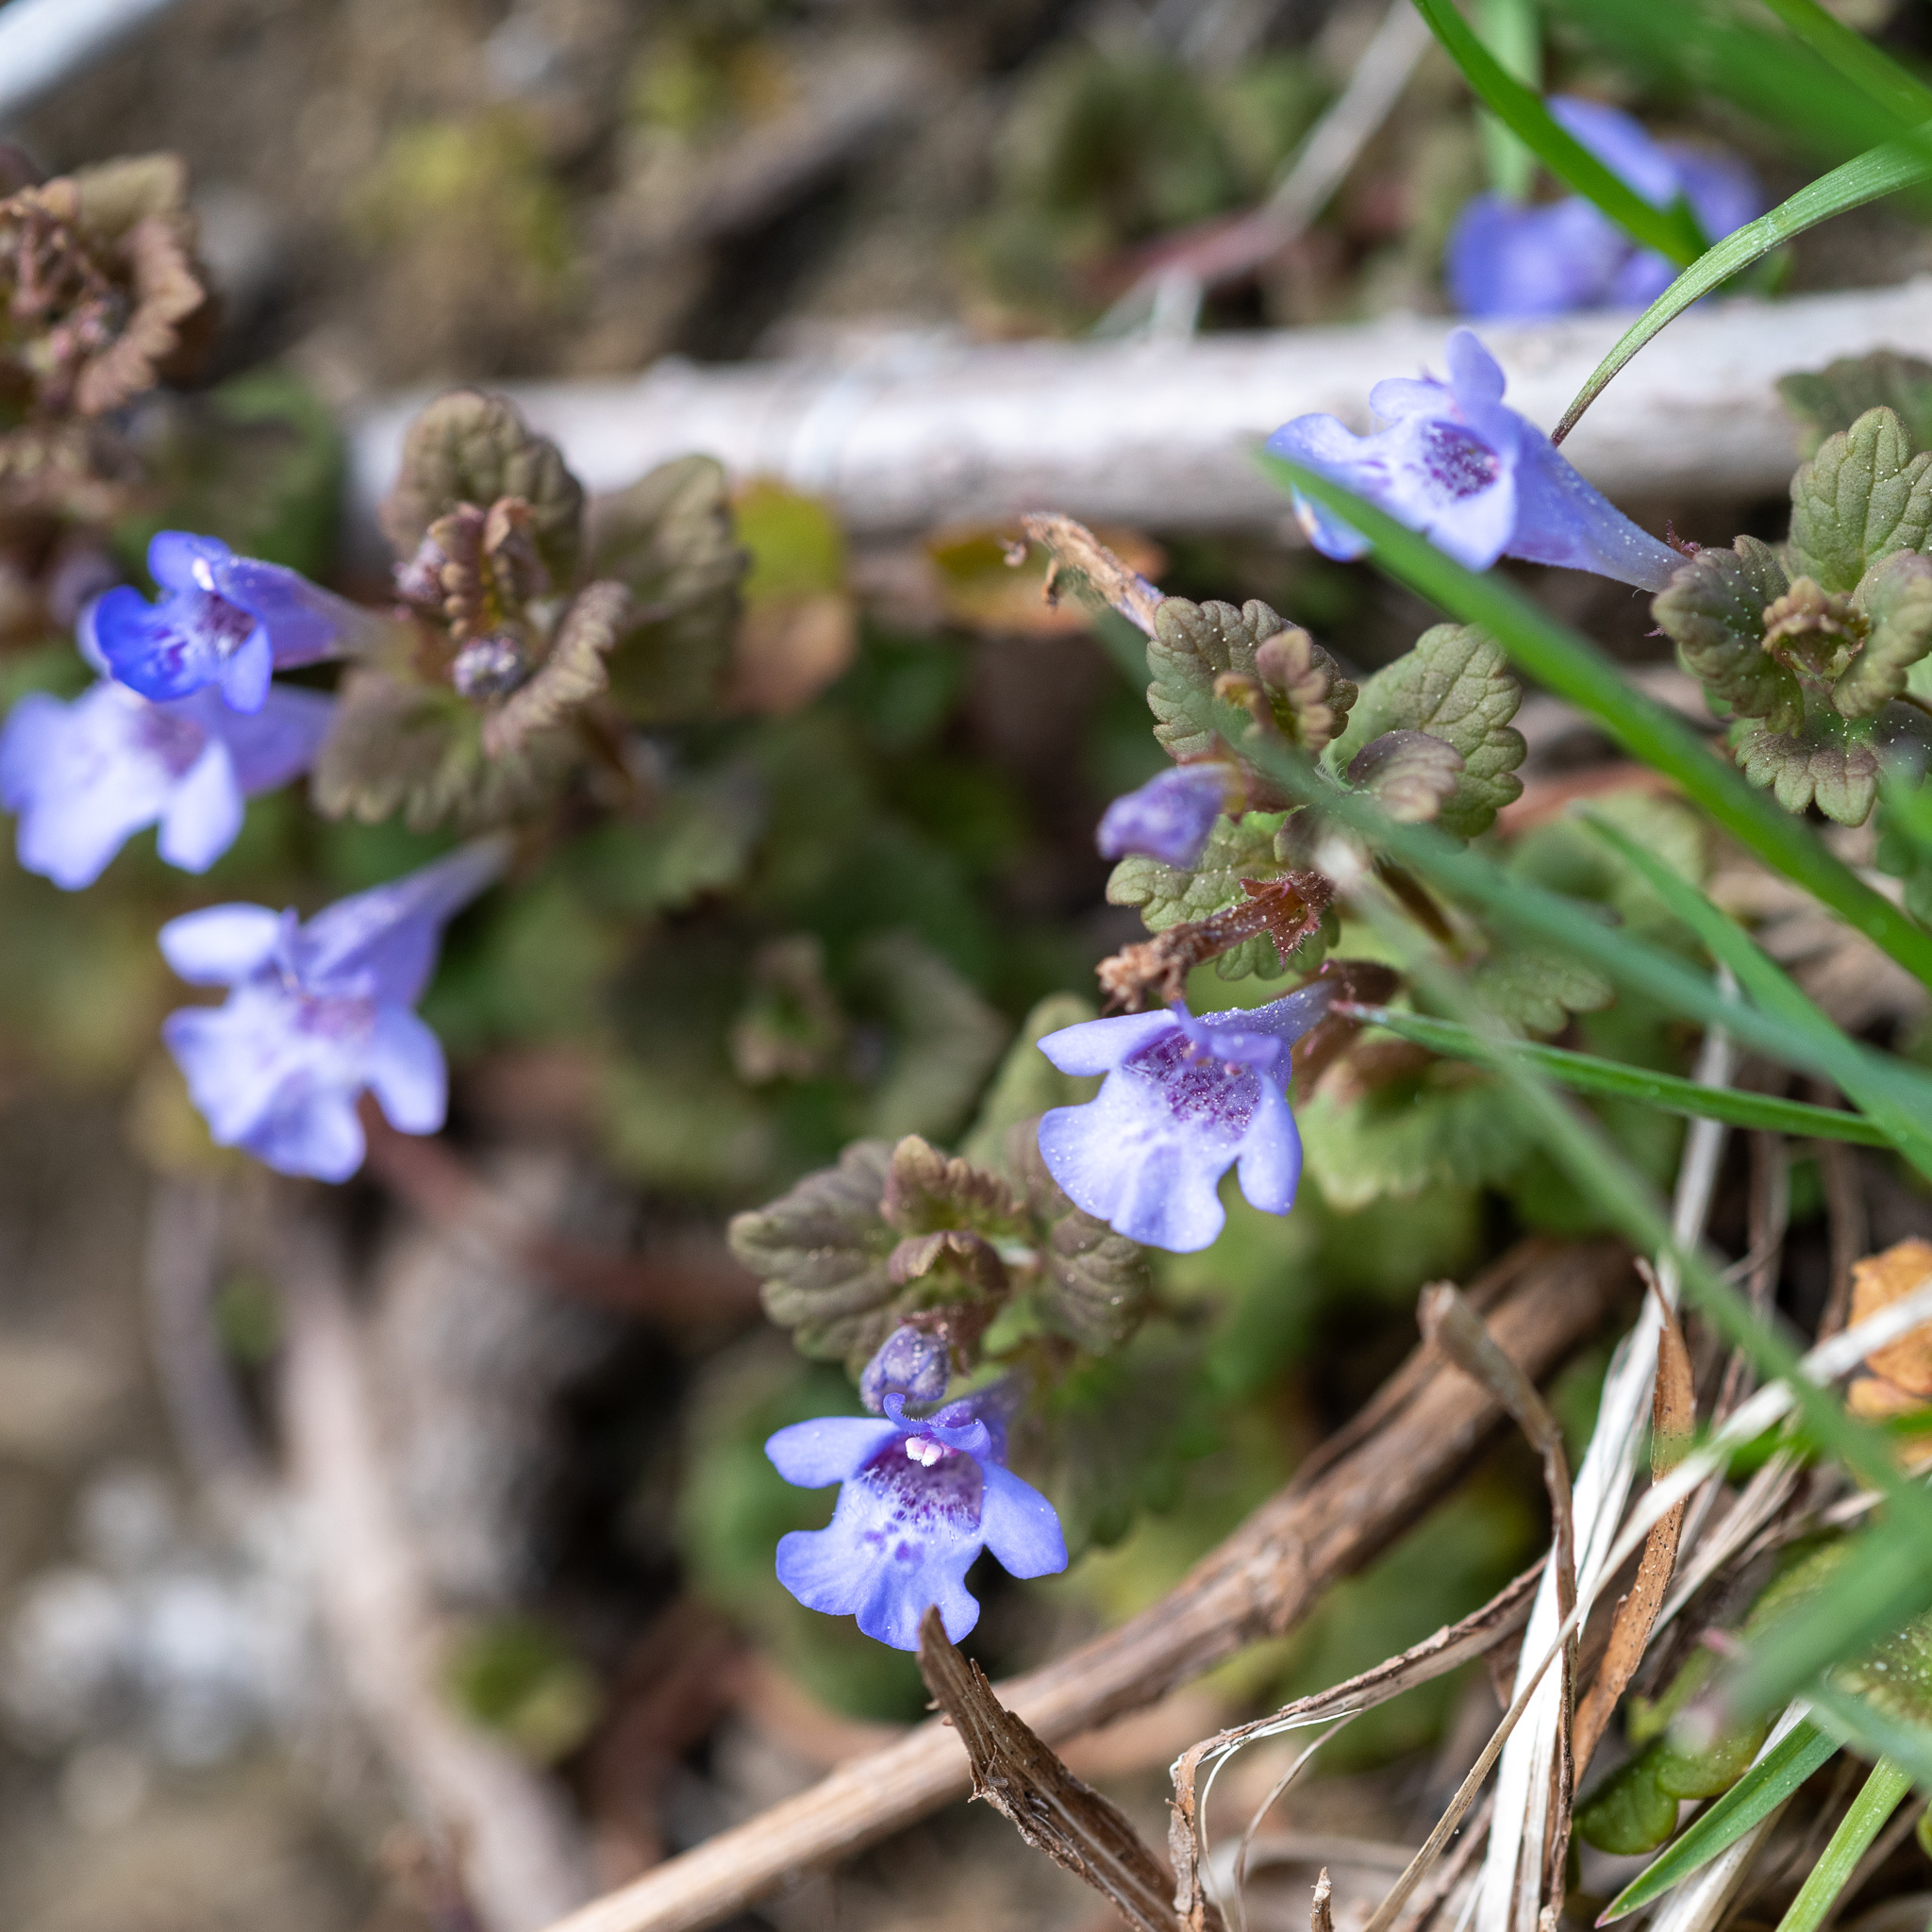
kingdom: Plantae
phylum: Tracheophyta
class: Magnoliopsida
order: Lamiales
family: Lamiaceae
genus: Glechoma
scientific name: Glechoma hederacea
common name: Ground ivy
